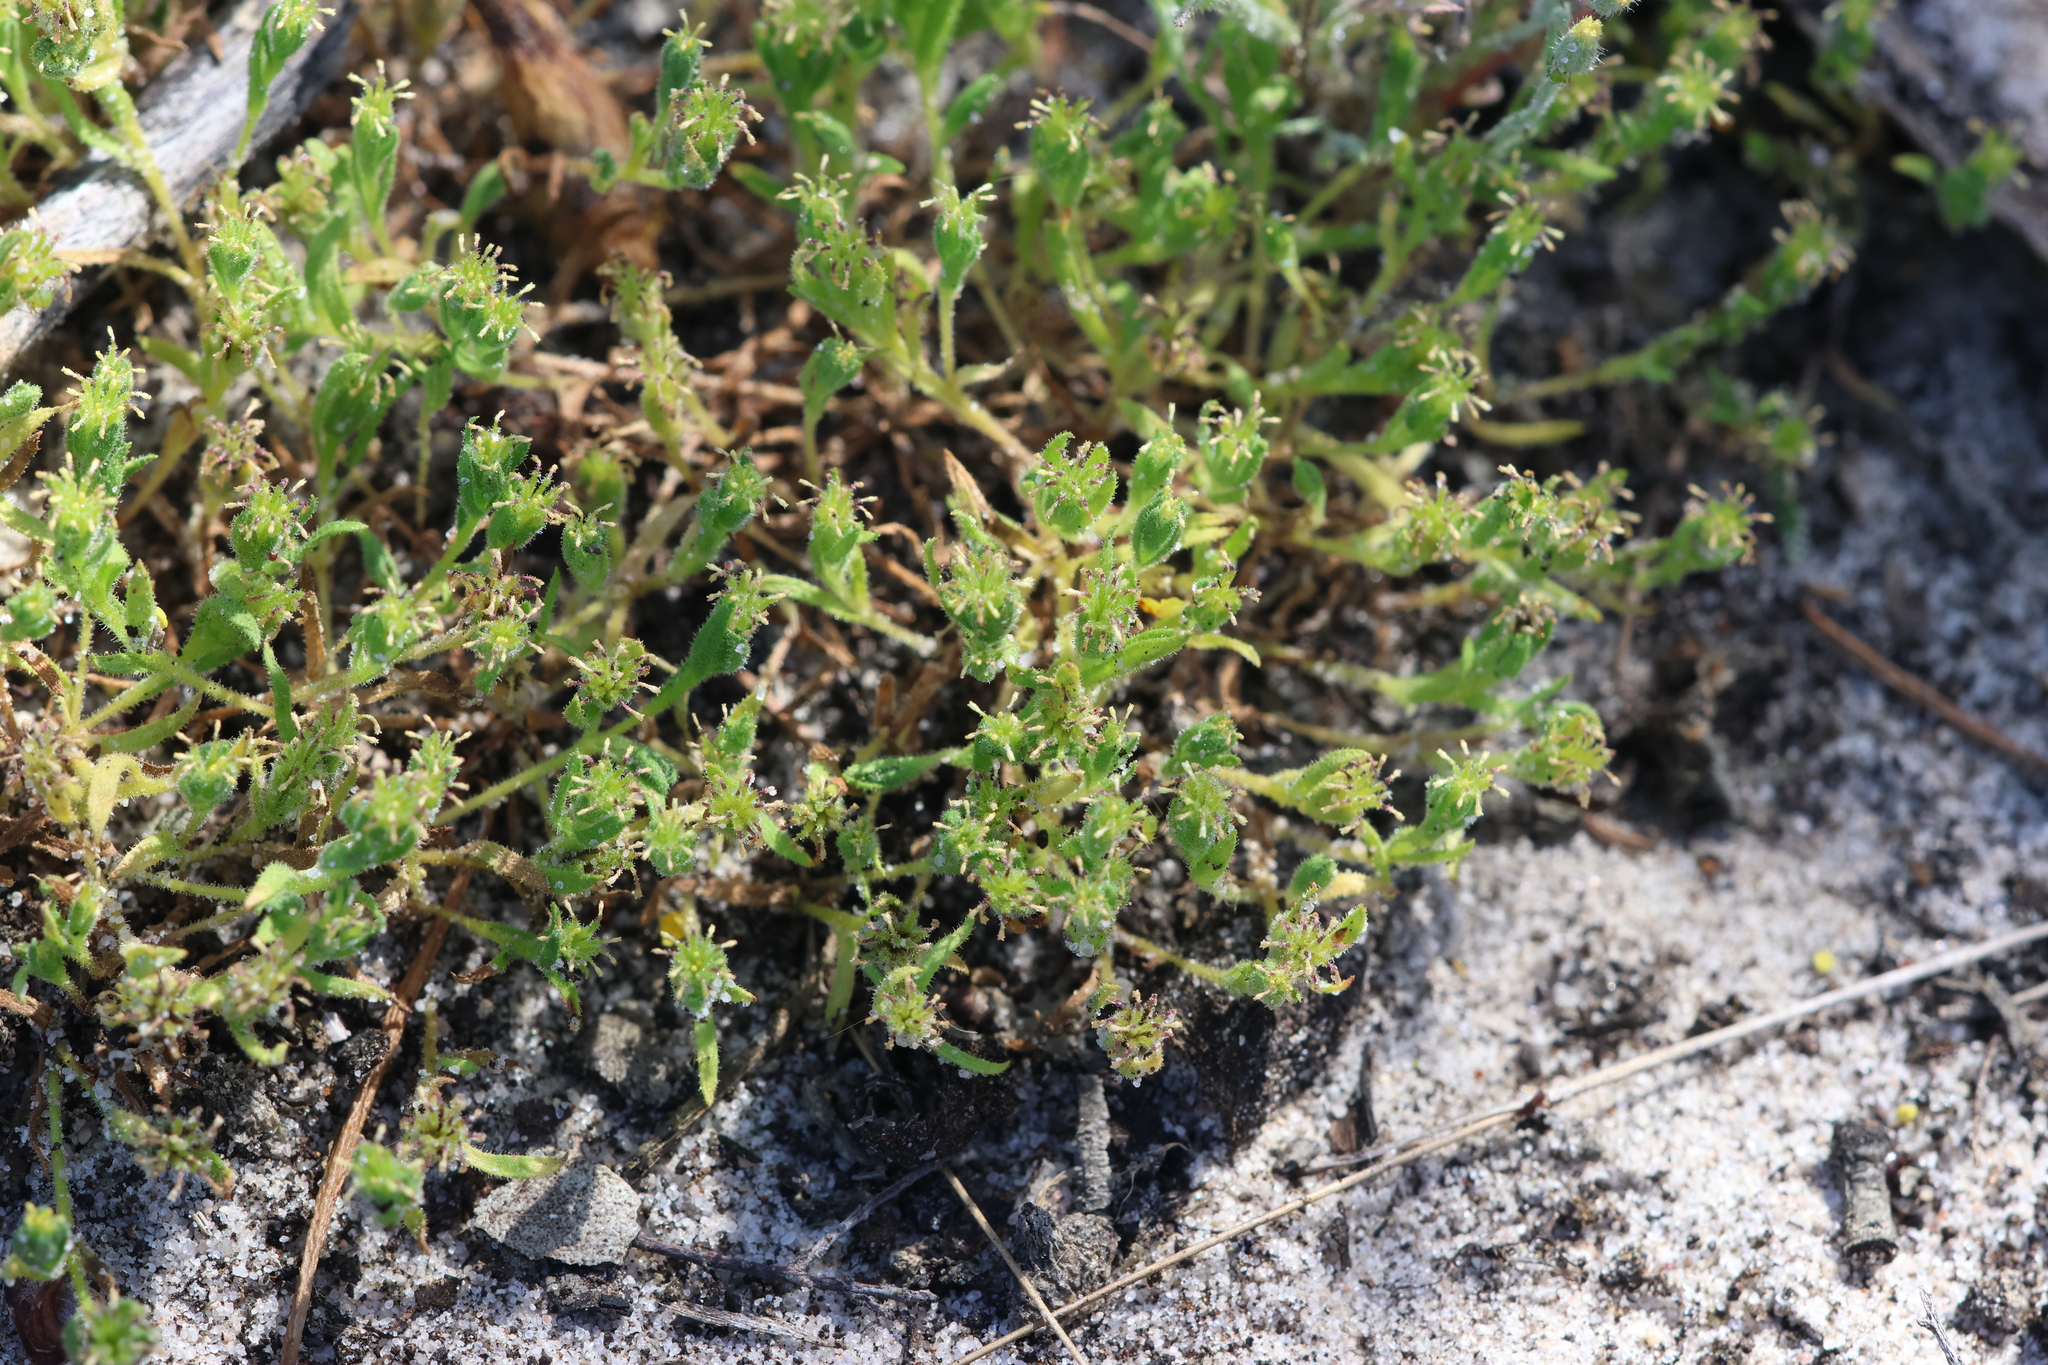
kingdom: Plantae
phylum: Tracheophyta
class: Magnoliopsida
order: Asterales
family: Asteraceae
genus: Millotia
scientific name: Millotia muelleri
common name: Common bow-flower
